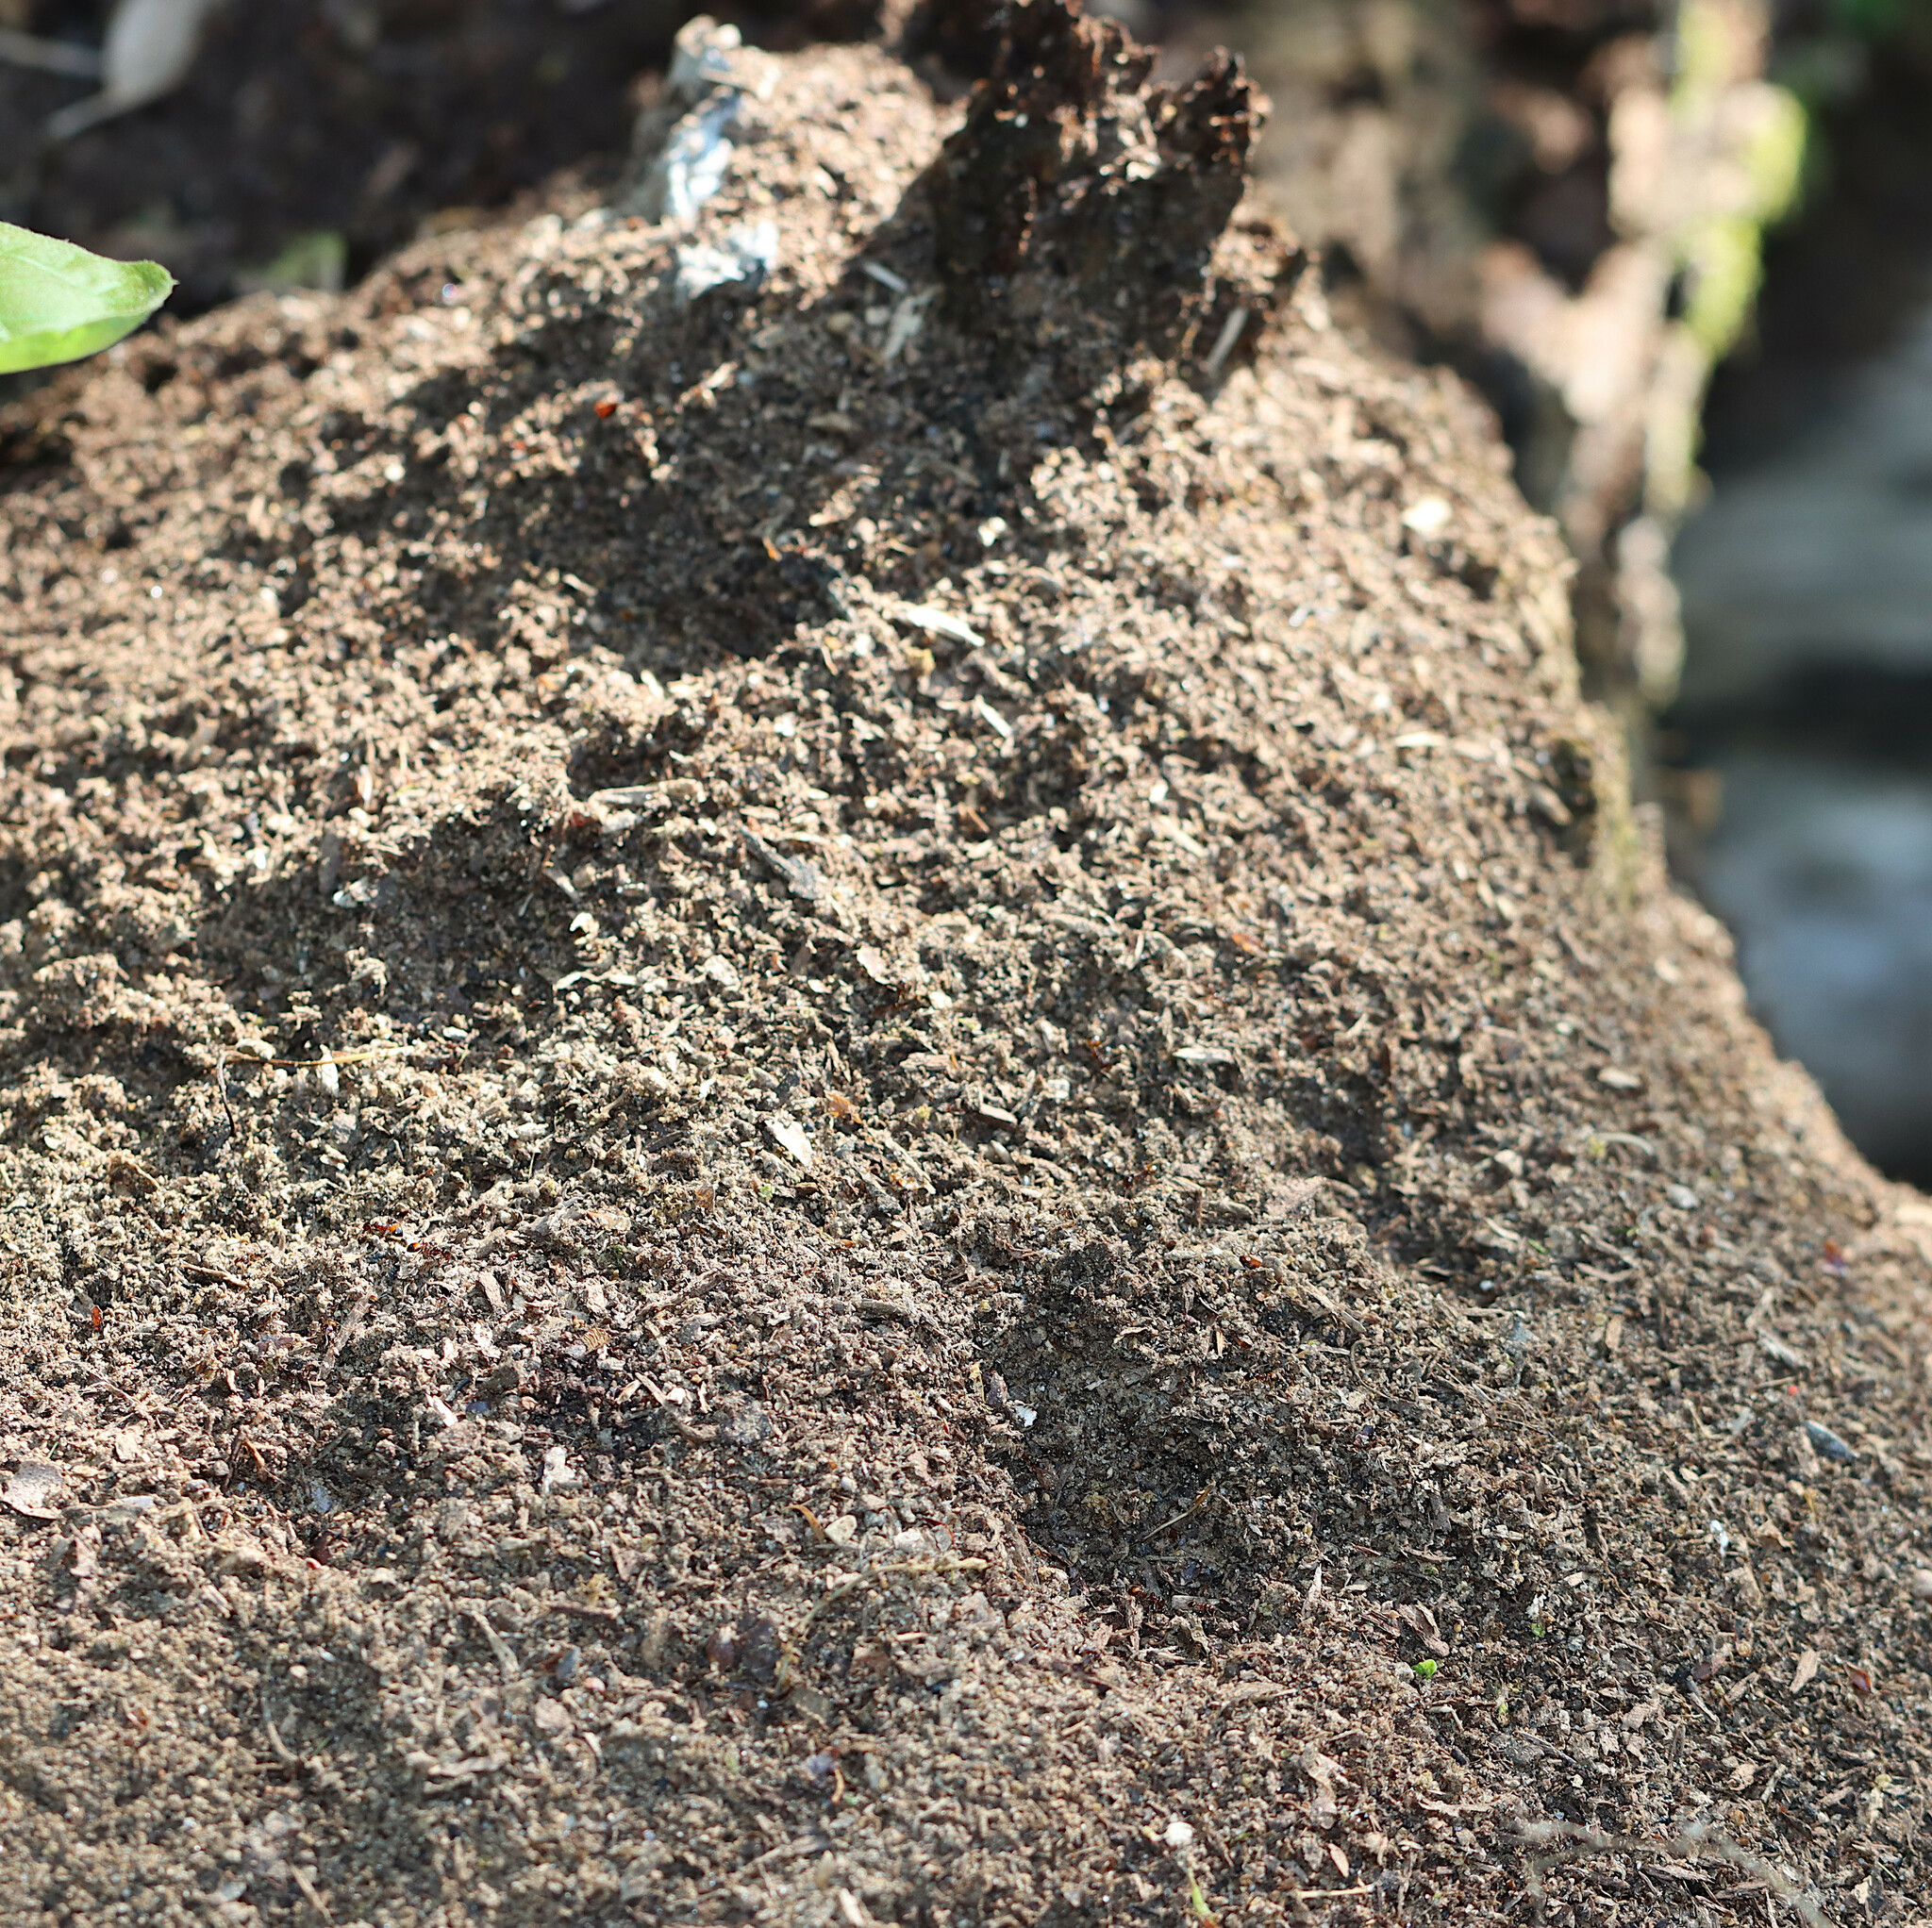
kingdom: Animalia
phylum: Arthropoda
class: Insecta
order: Hymenoptera
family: Formicidae
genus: Solenopsis
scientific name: Solenopsis
